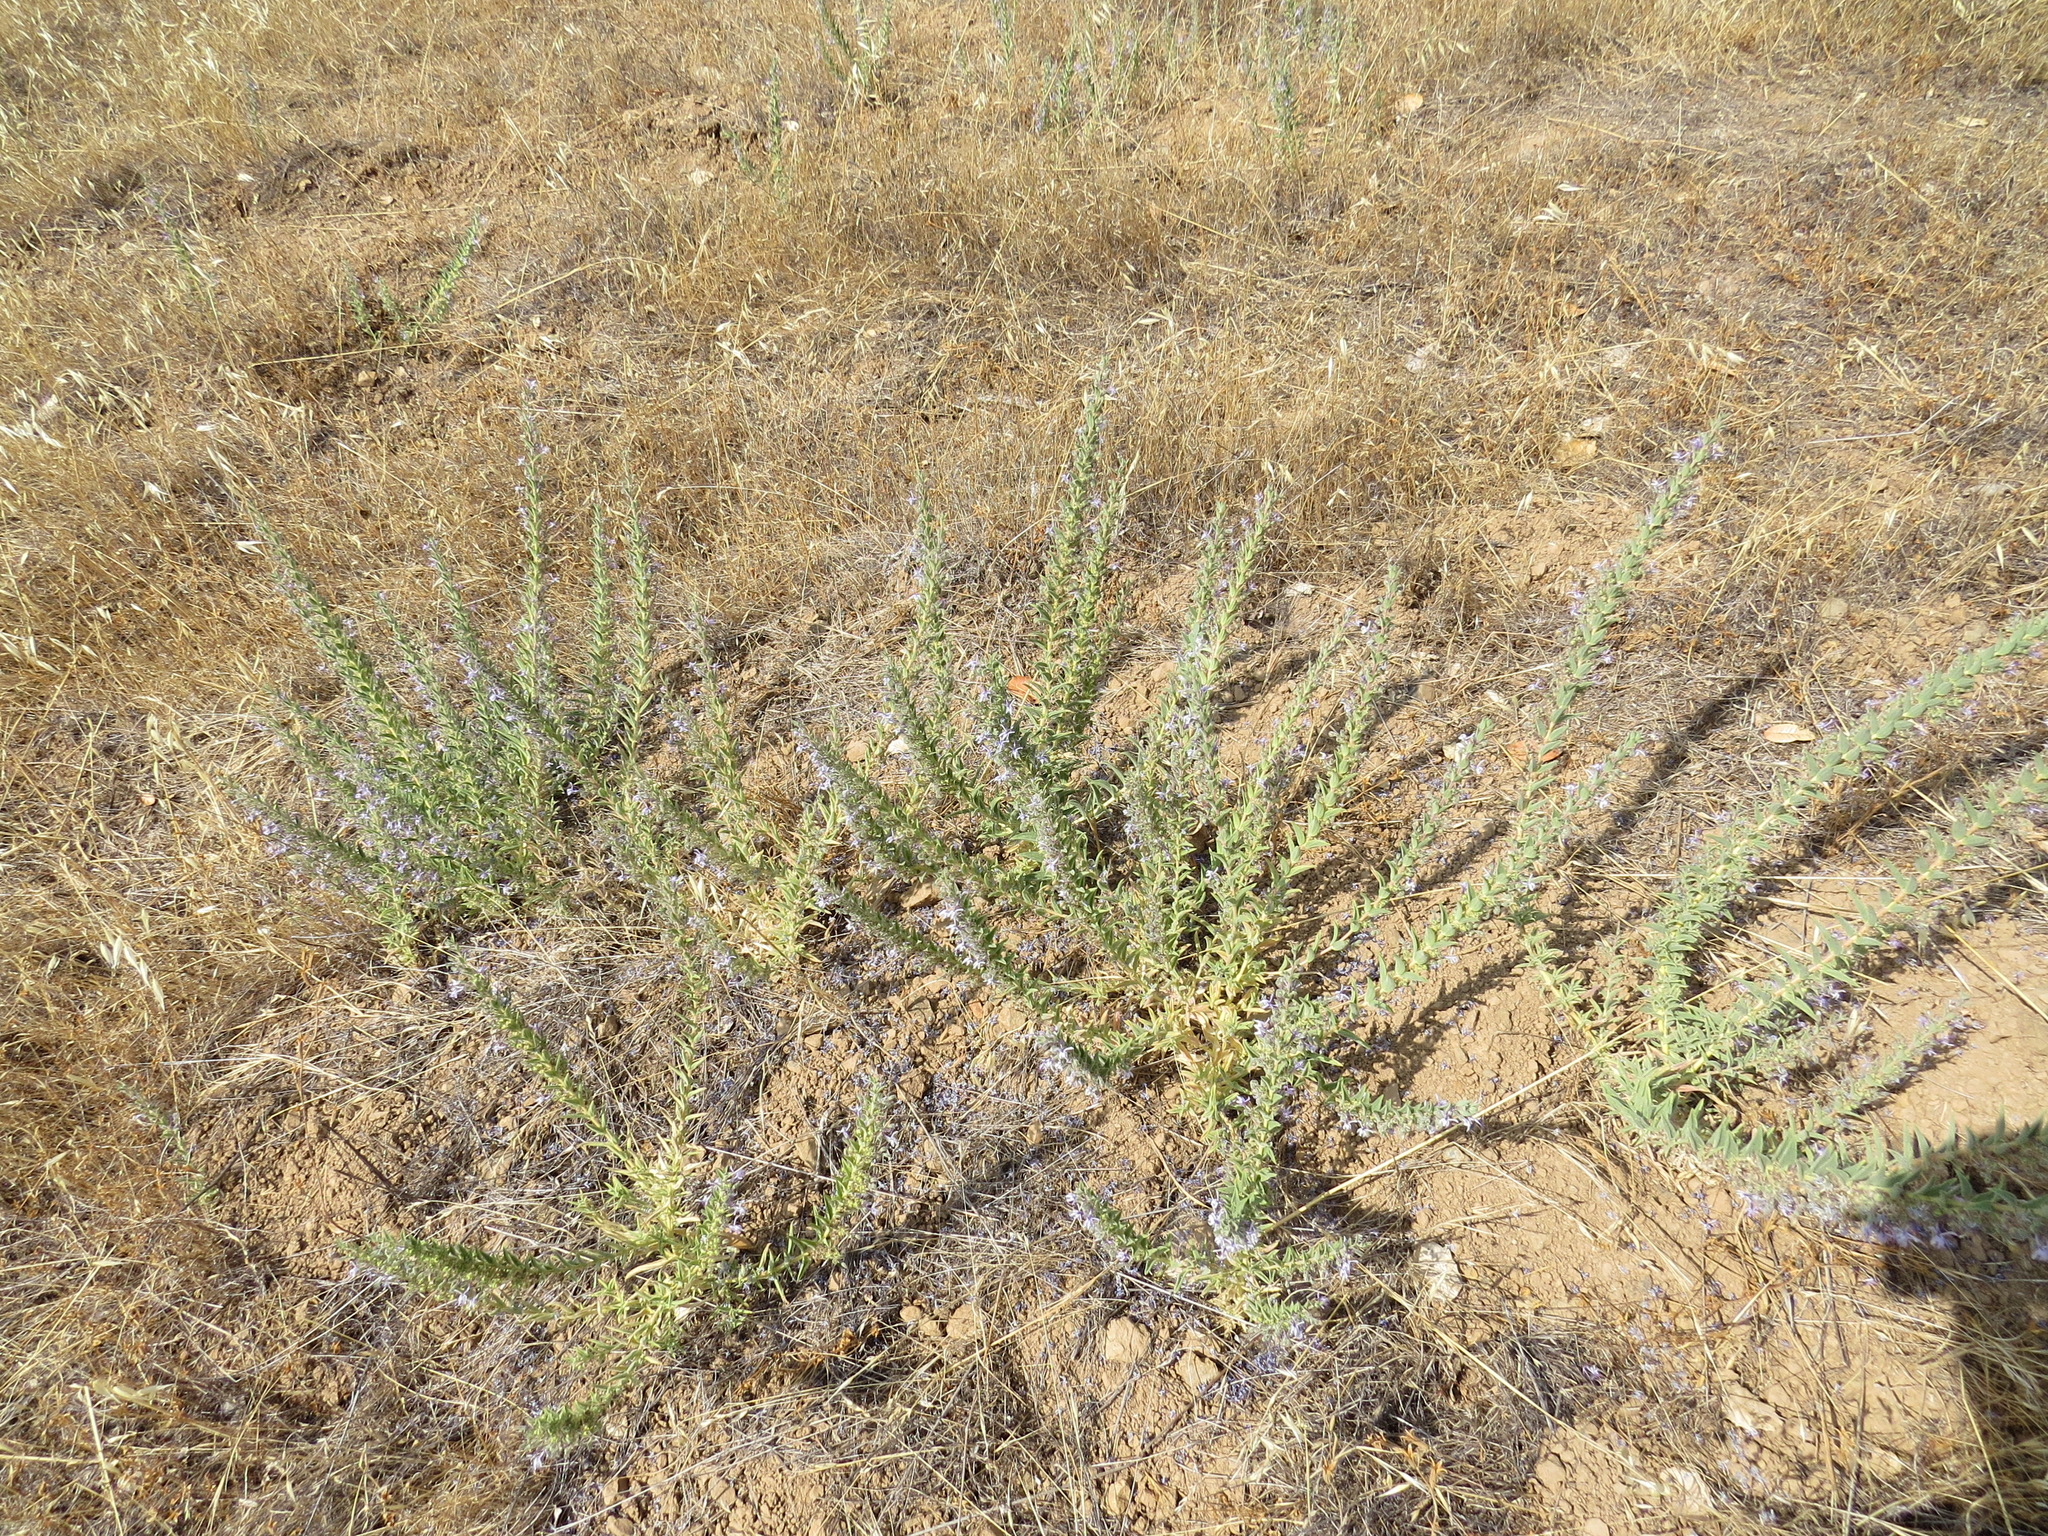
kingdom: Plantae
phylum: Tracheophyta
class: Magnoliopsida
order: Lamiales
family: Lamiaceae
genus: Trichostema
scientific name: Trichostema lanceolatum
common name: Vinegar-weed
